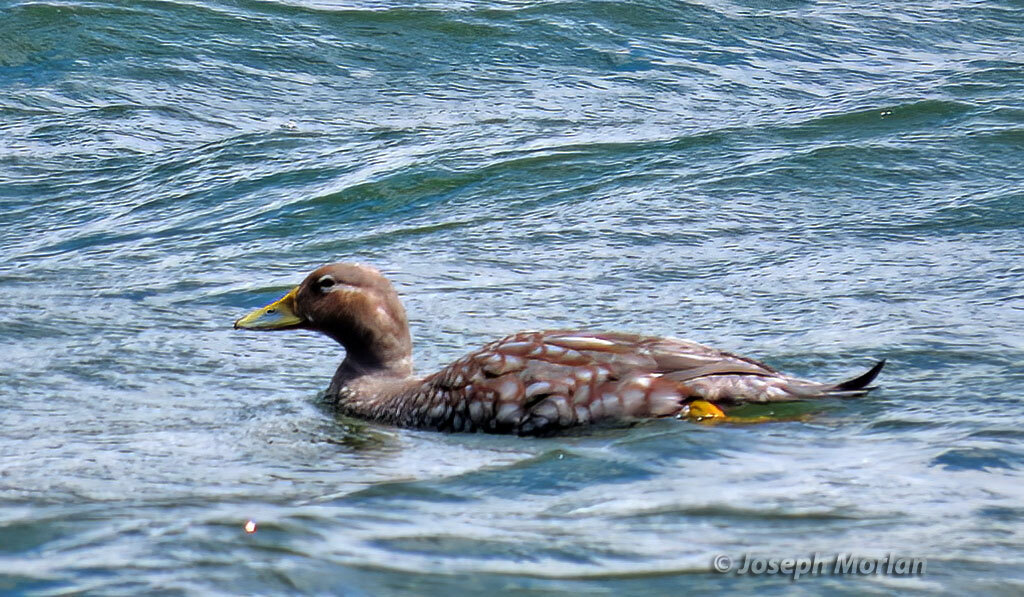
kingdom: Animalia
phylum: Chordata
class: Aves
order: Anseriformes
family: Anatidae
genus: Tachyeres
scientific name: Tachyeres patachonicus
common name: Flying steamer duck
